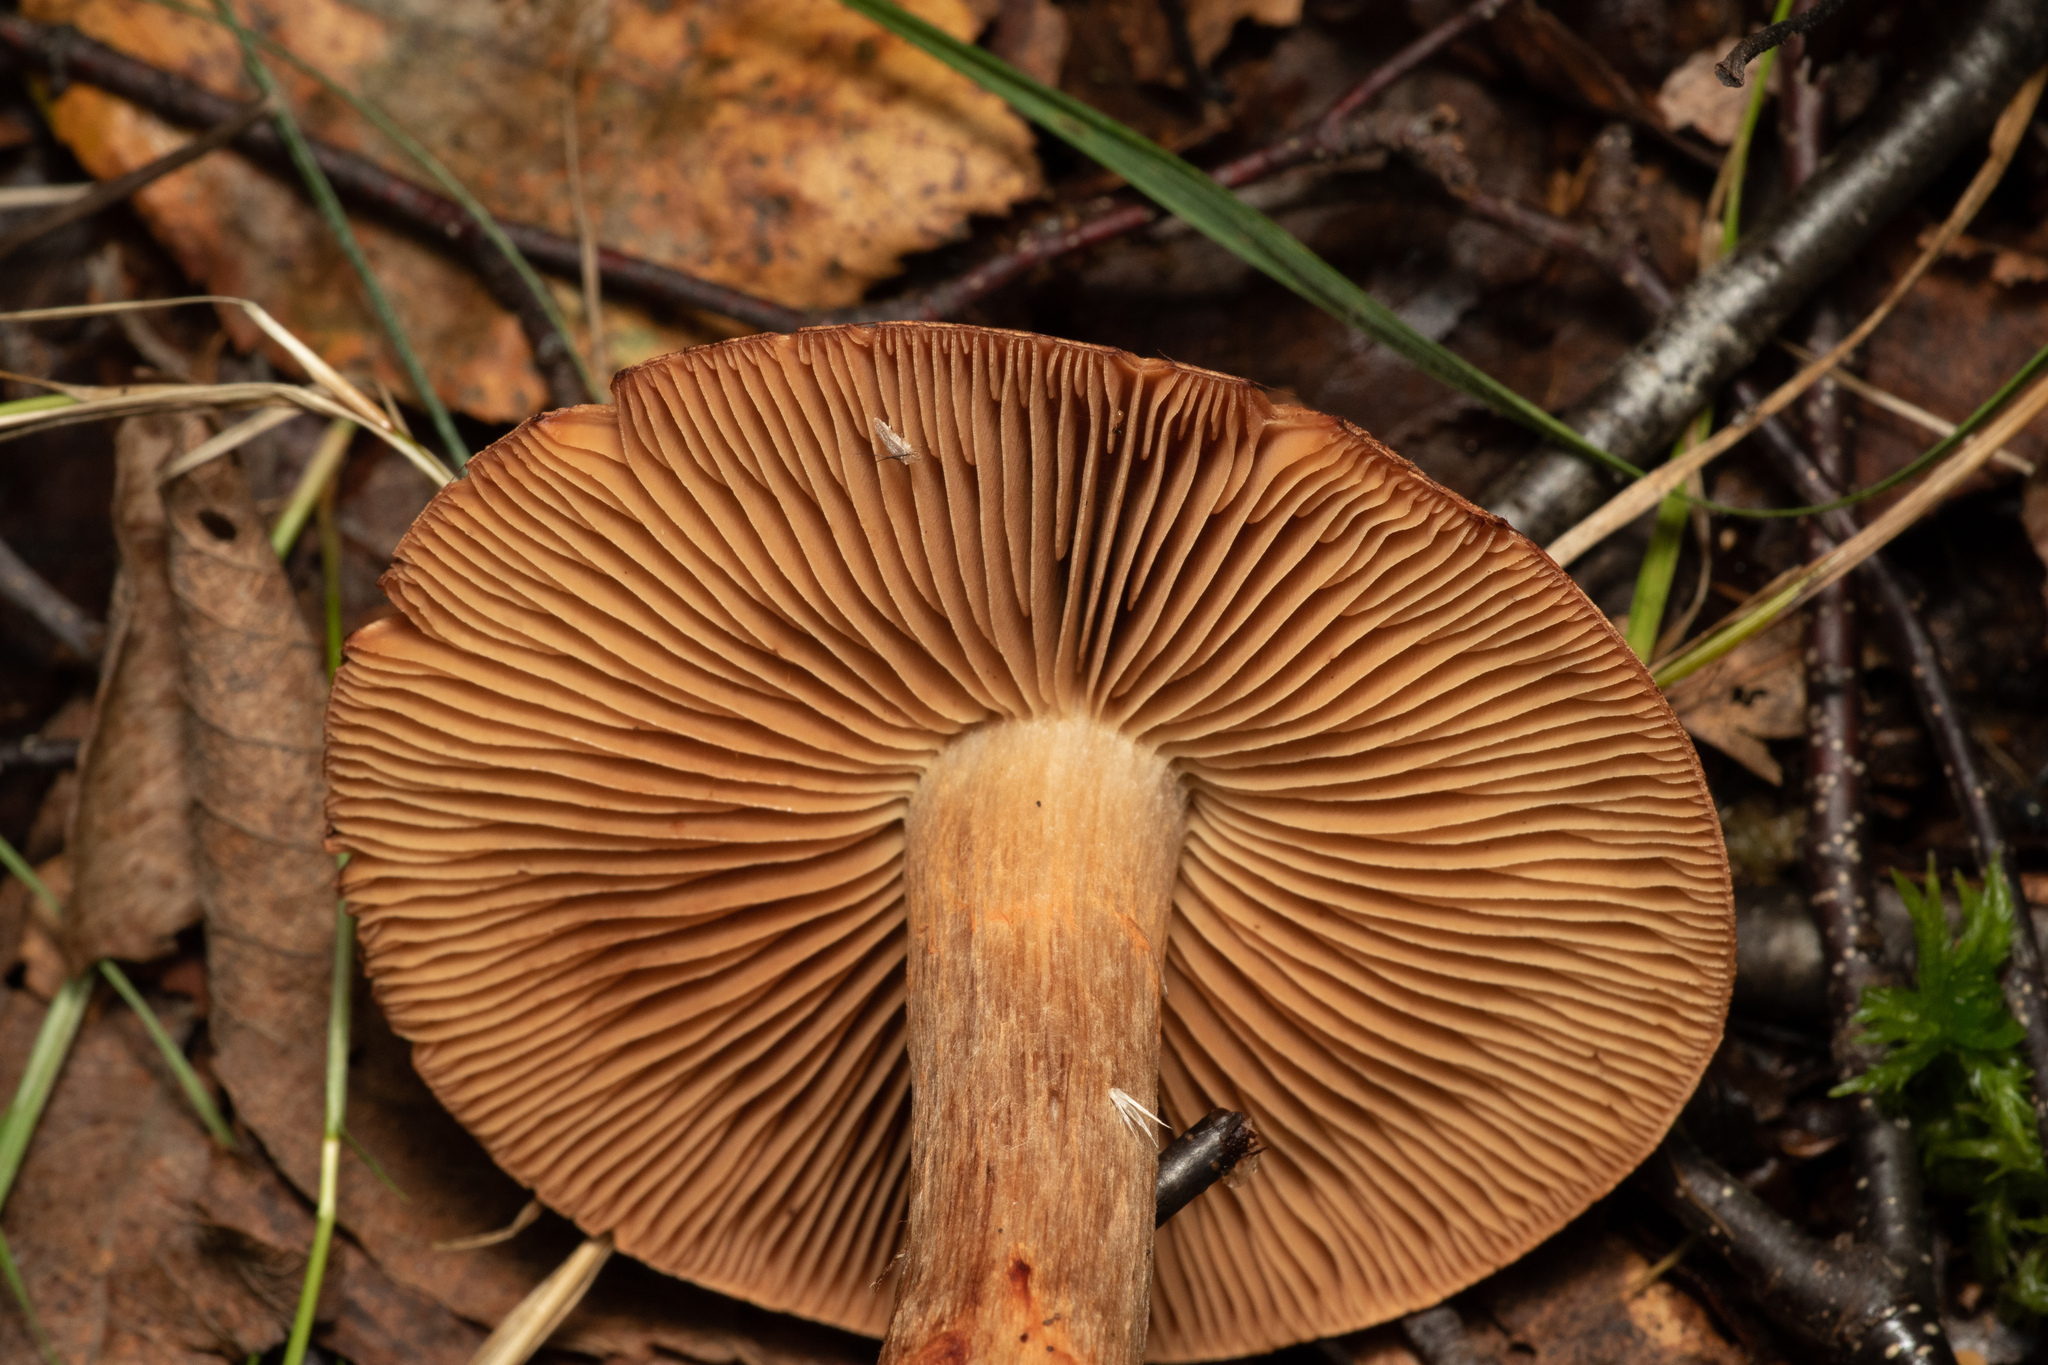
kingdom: Fungi
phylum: Basidiomycota
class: Agaricomycetes
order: Agaricales
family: Cortinariaceae
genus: Cortinarius
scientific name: Cortinarius armillatus
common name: Red banded webcap
